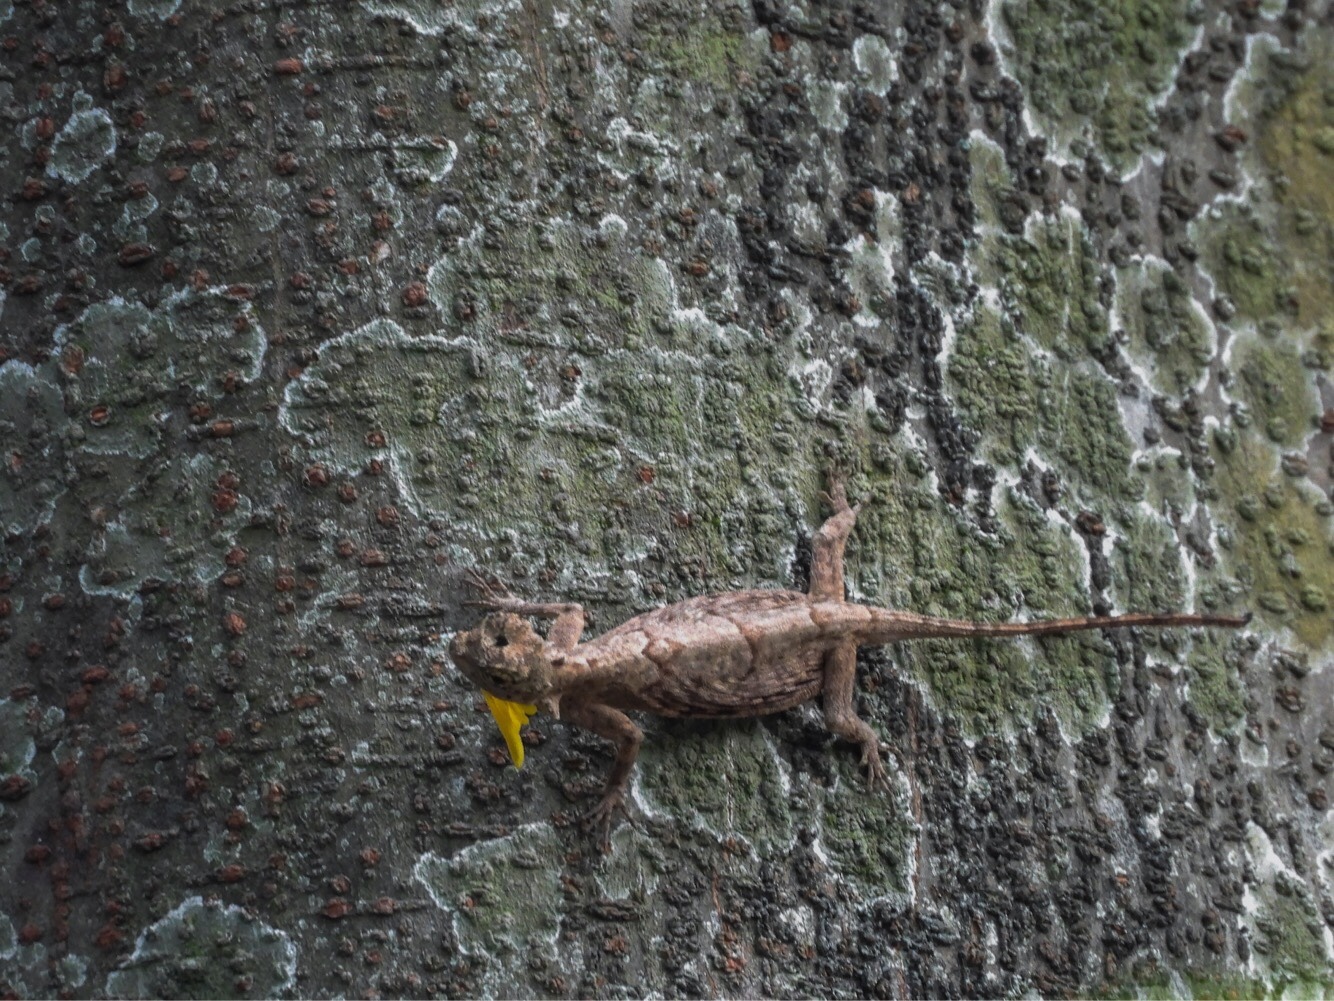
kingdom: Animalia
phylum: Chordata
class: Squamata
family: Agamidae
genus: Draco
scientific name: Draco volans
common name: Common flying dragon
